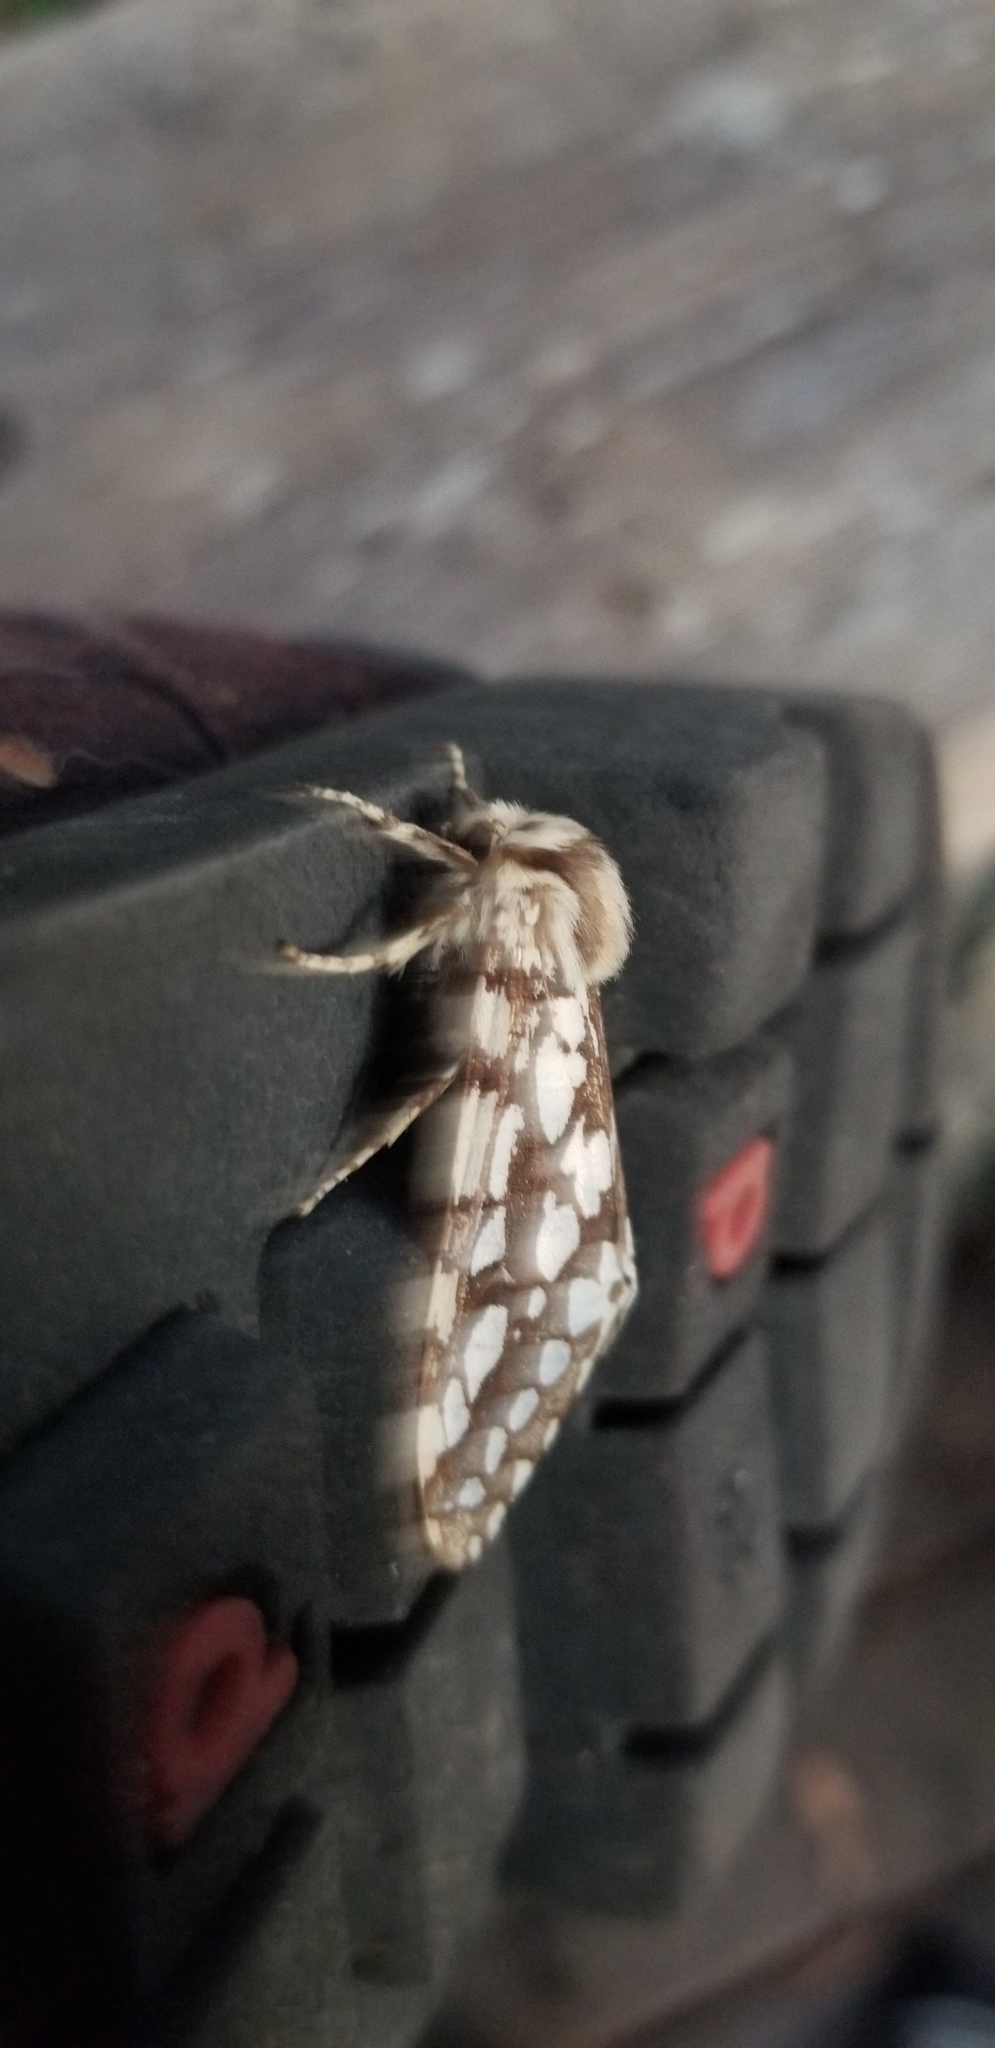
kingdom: Animalia
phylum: Arthropoda
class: Insecta
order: Lepidoptera
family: Erebidae
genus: Lophocampa
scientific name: Lophocampa argentata
